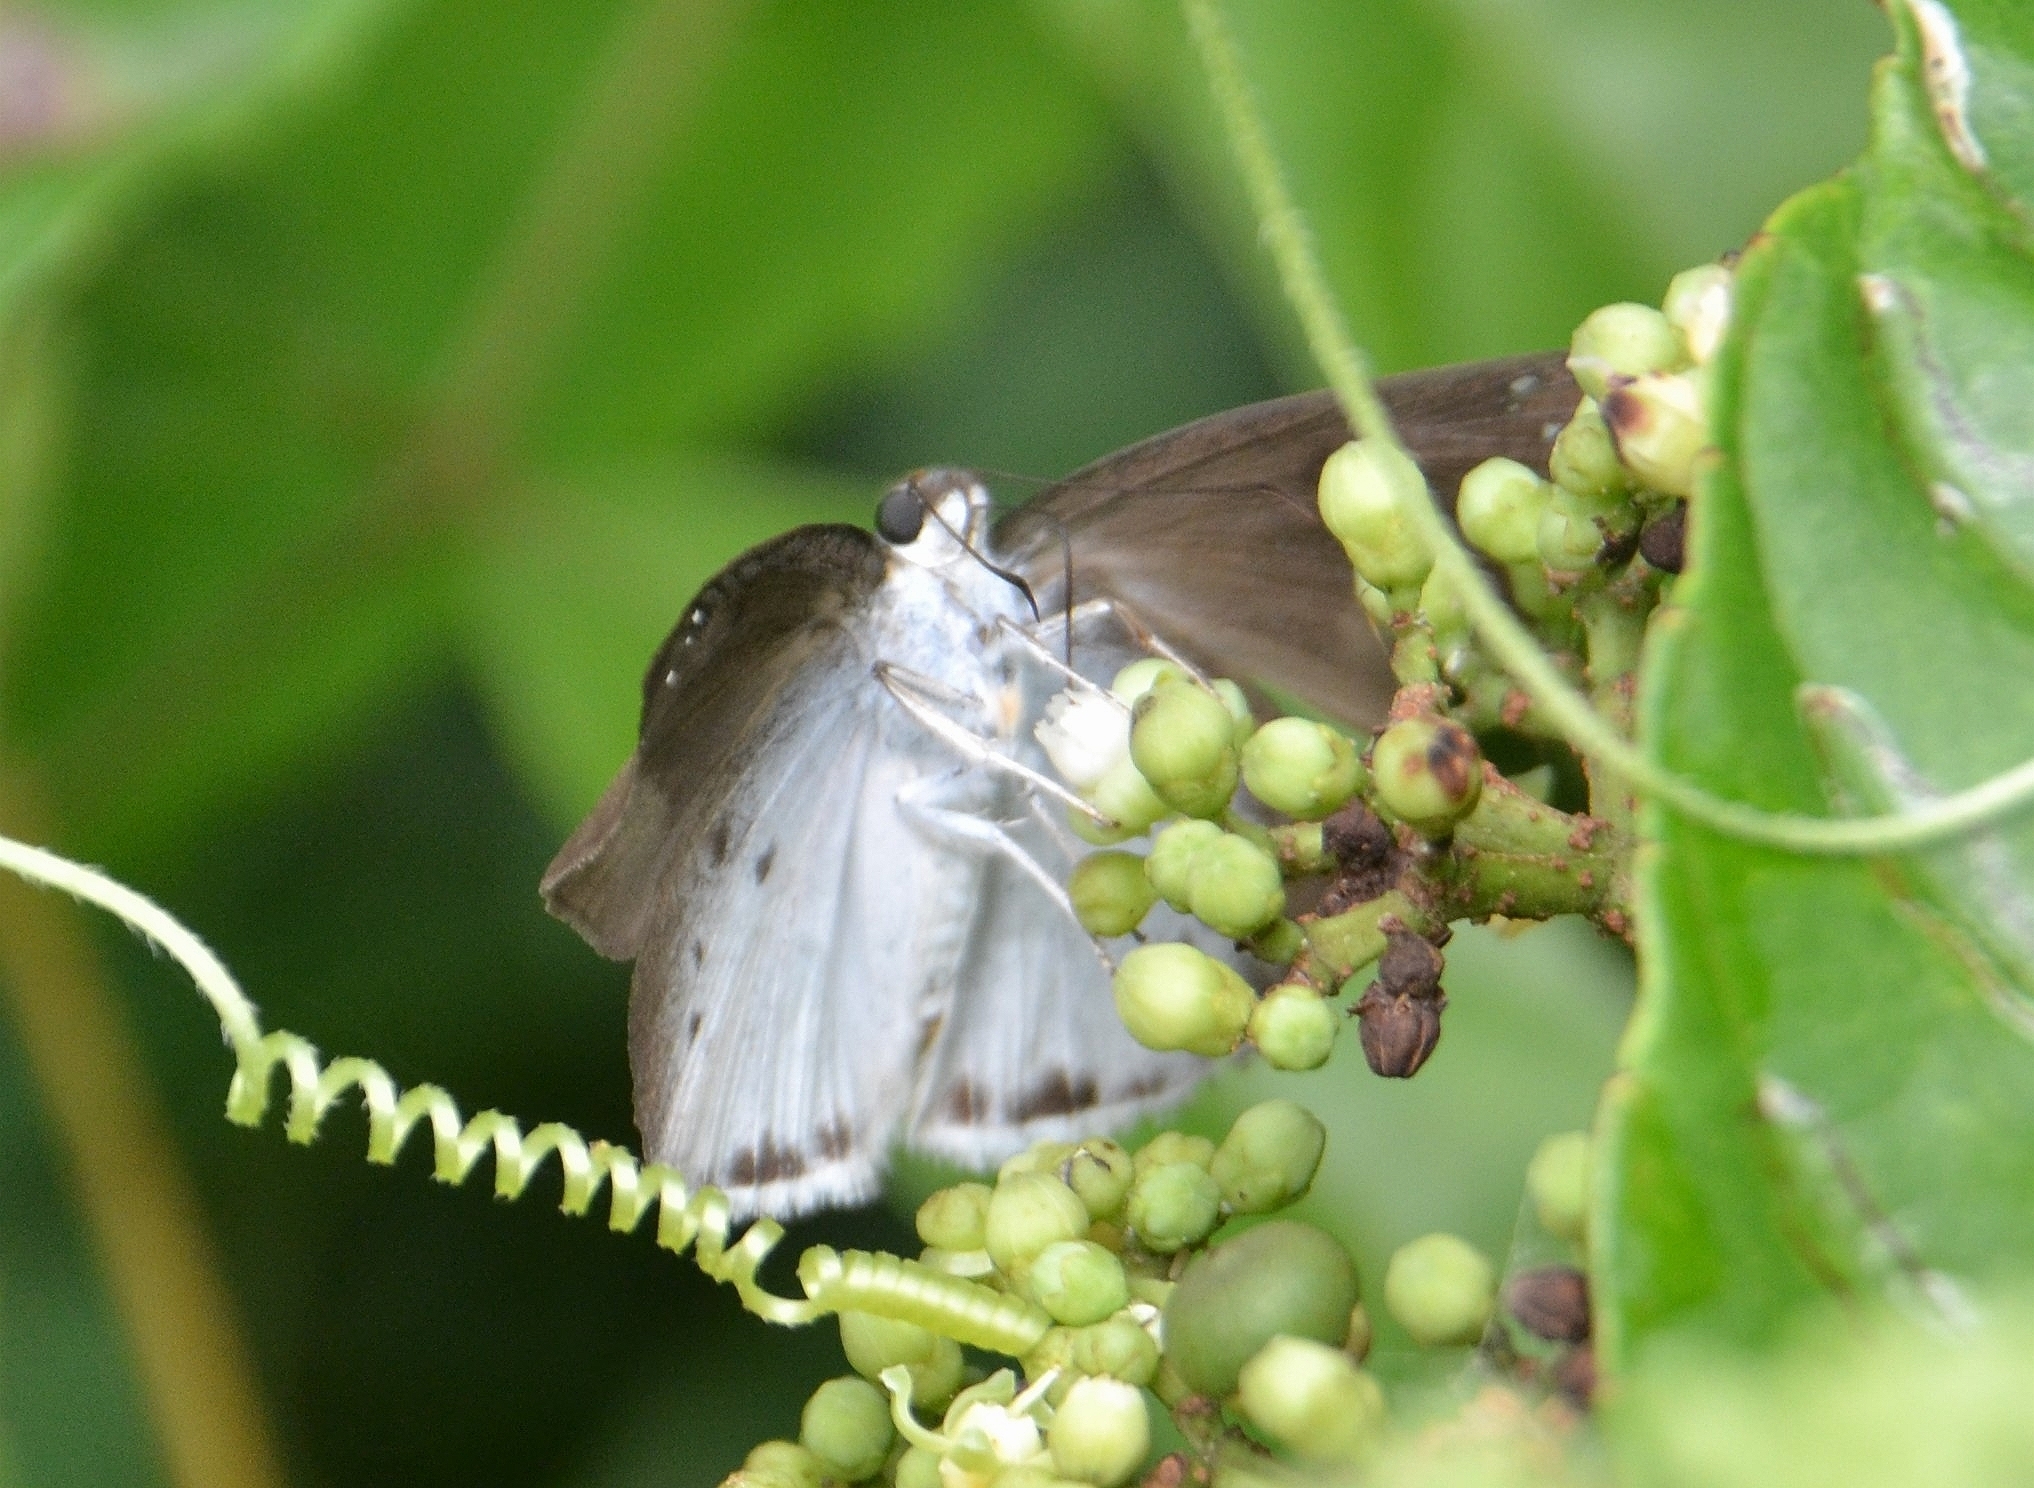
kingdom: Animalia
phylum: Arthropoda
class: Insecta
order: Lepidoptera
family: Hesperiidae
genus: Tagiades
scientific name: Tagiades gana
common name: Suffused snow flat
